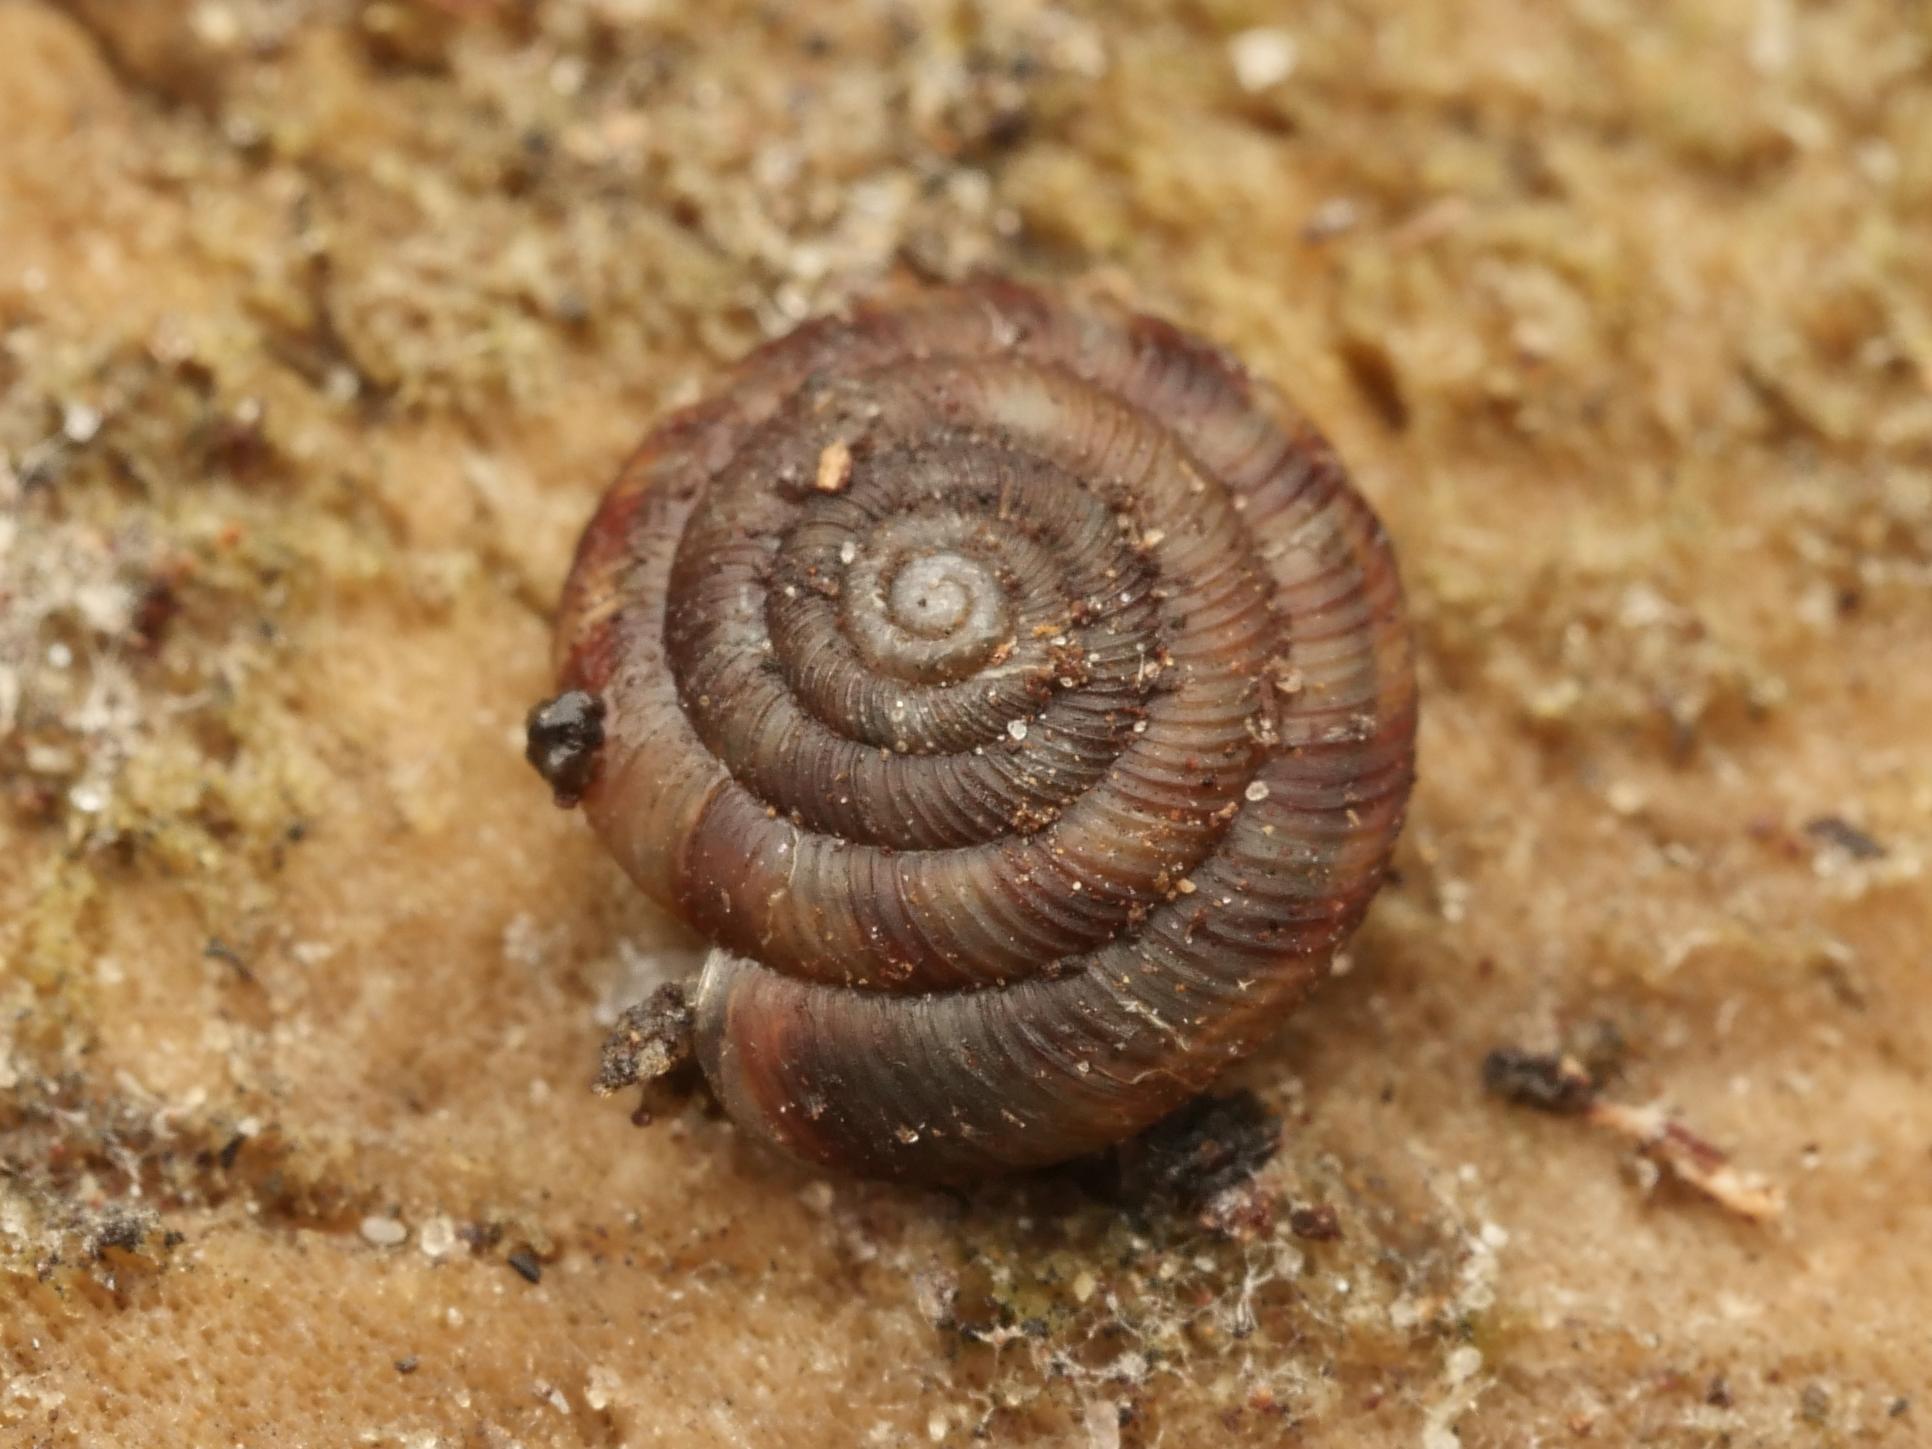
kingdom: Animalia
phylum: Mollusca
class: Gastropoda
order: Stylommatophora
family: Discidae
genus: Discus
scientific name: Discus rotundatus
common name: Rounded snail
